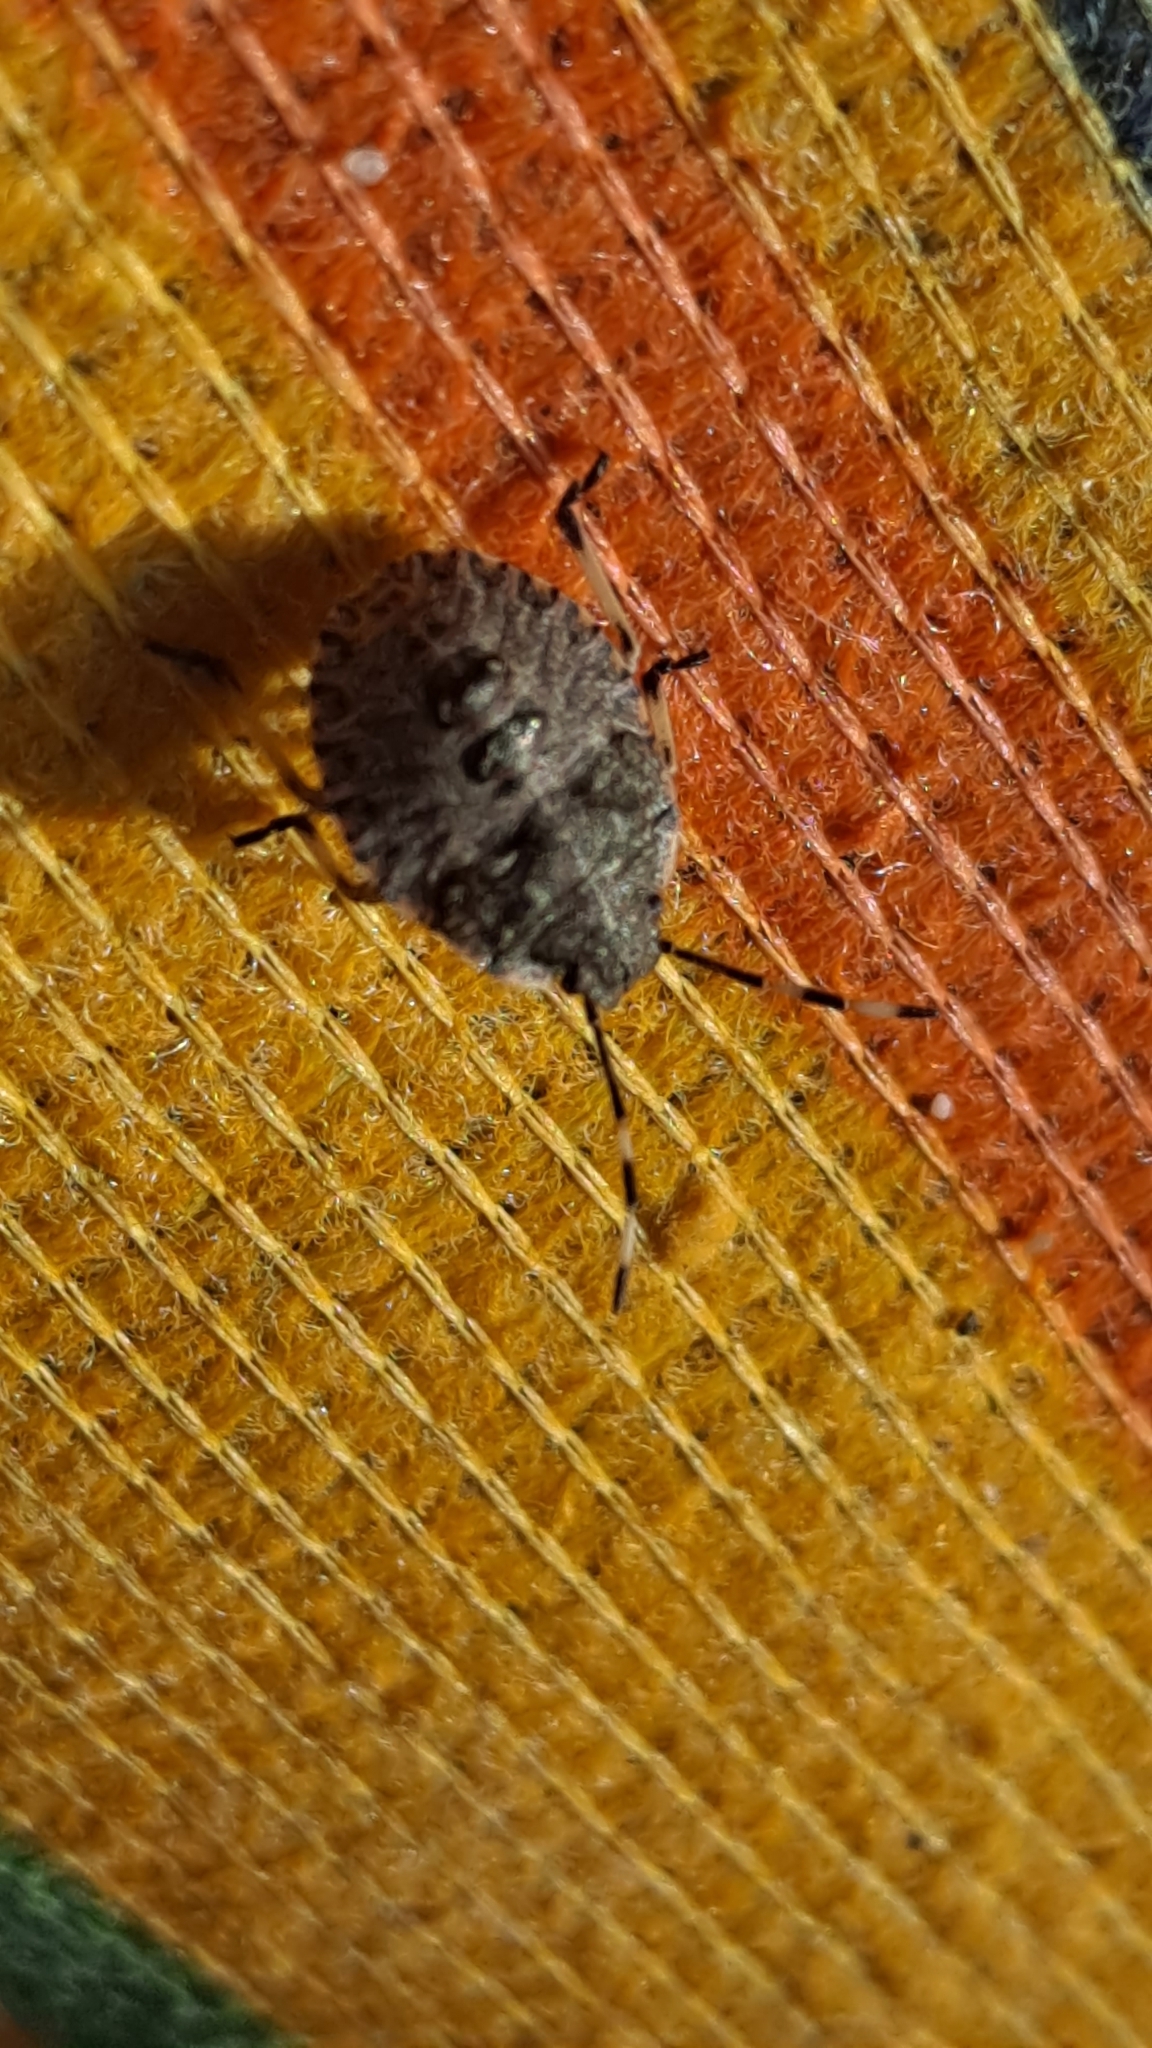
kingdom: Animalia
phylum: Arthropoda
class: Insecta
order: Hemiptera
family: Pentatomidae
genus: Rhaphigaster
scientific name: Rhaphigaster nebulosa
